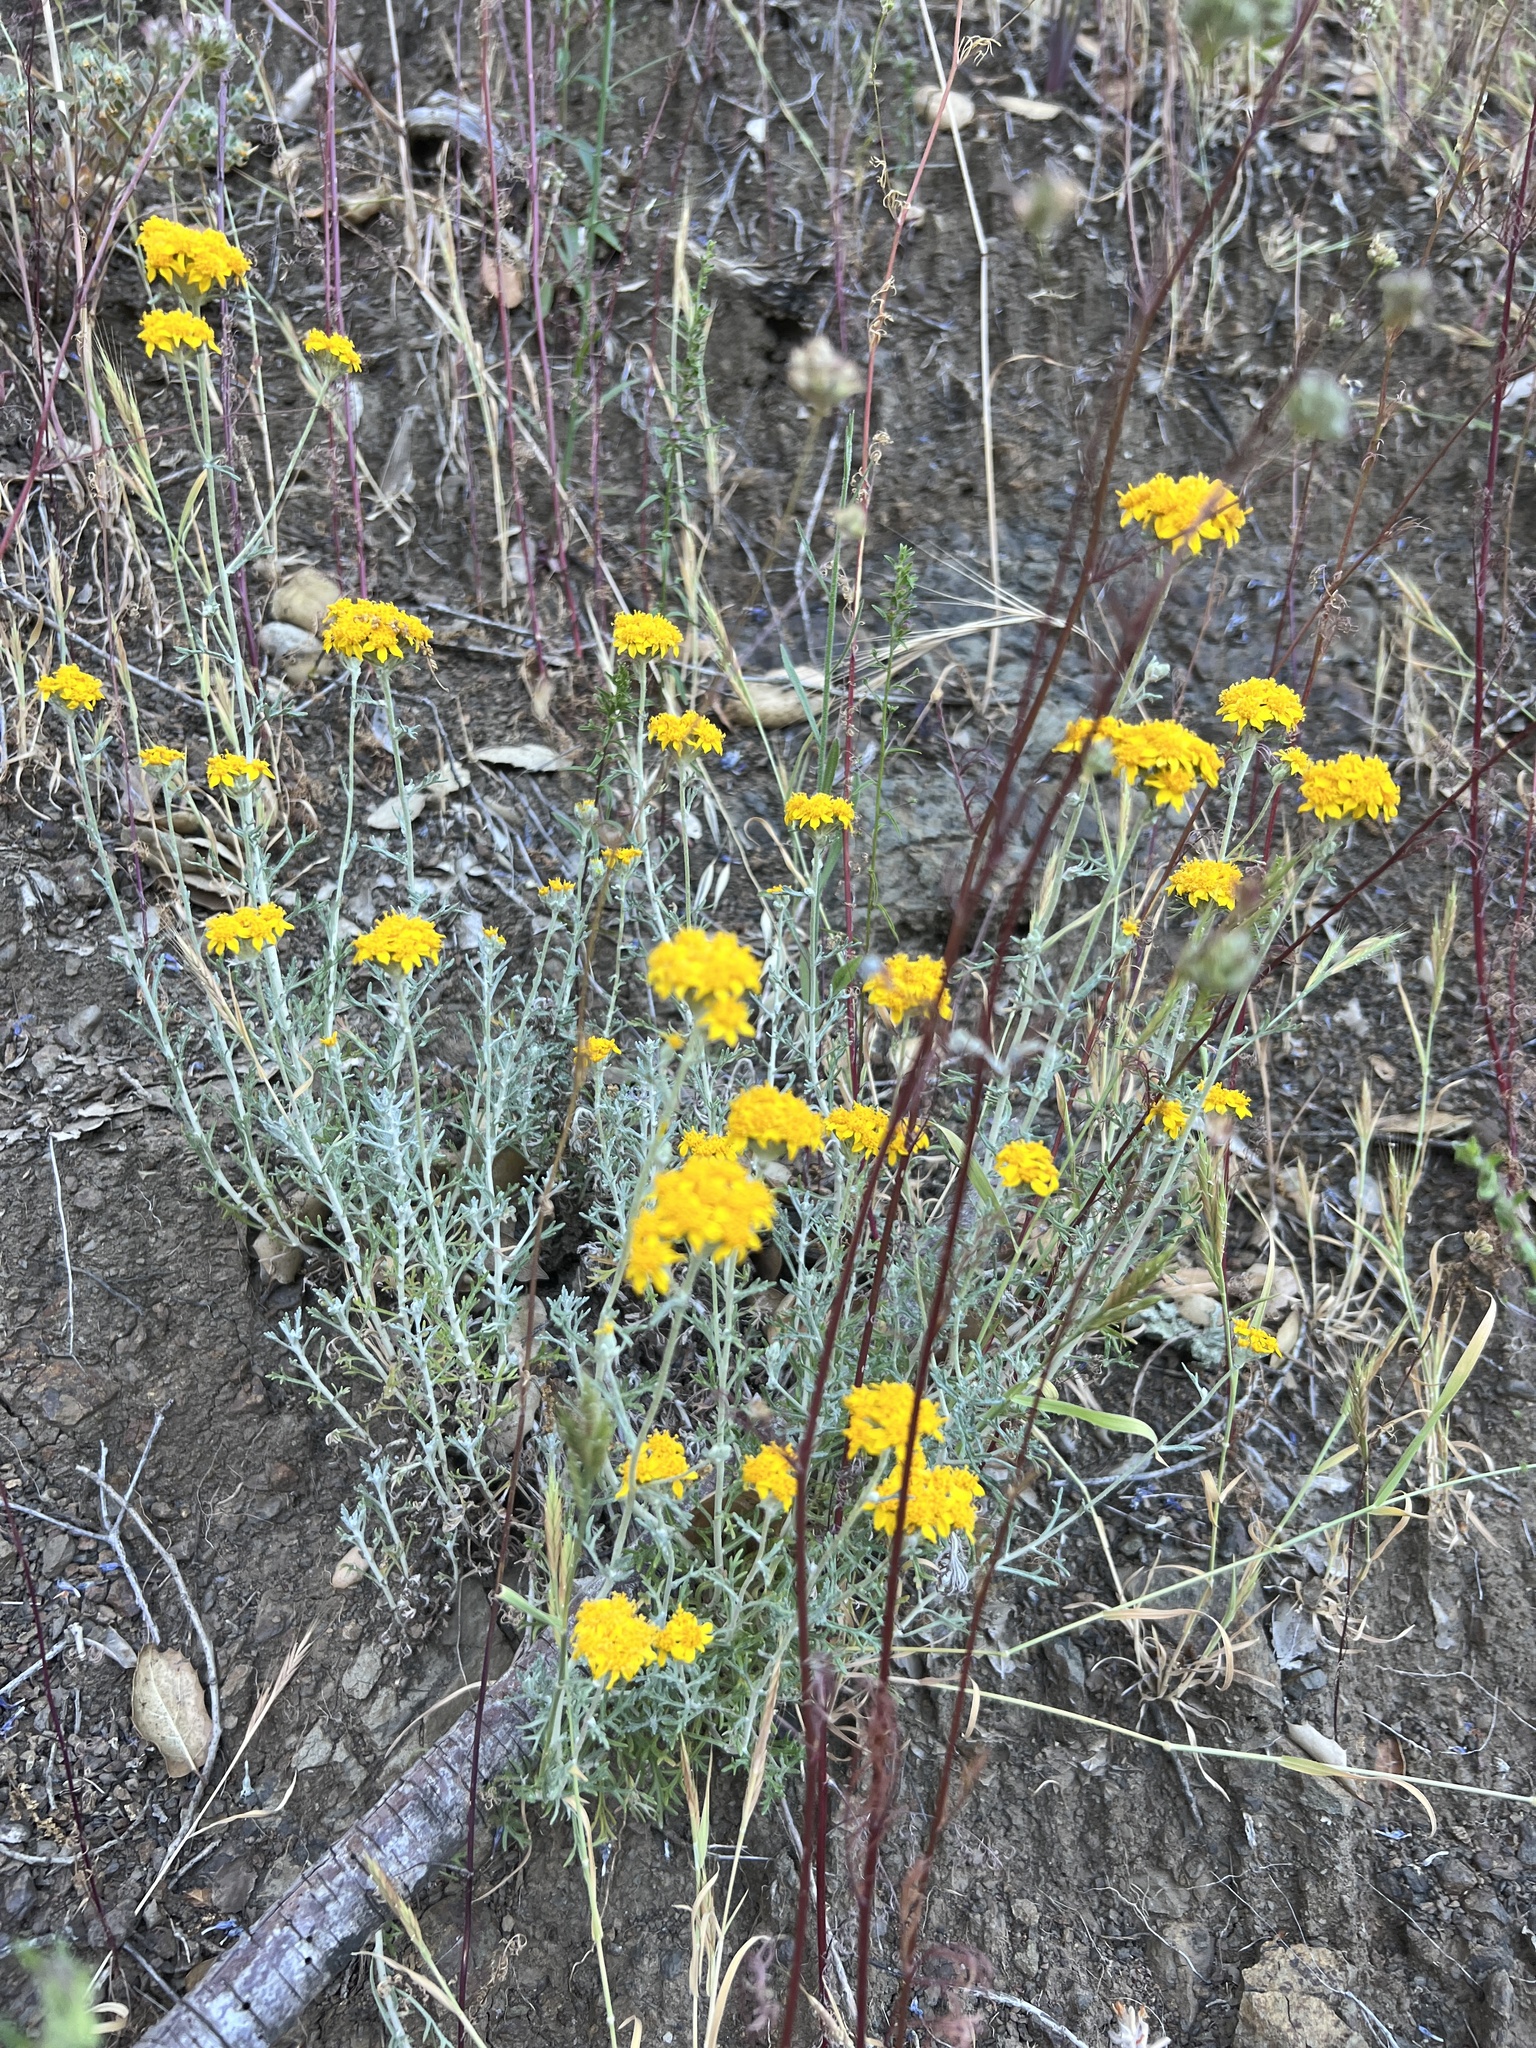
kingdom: Plantae
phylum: Tracheophyta
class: Magnoliopsida
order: Asterales
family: Asteraceae
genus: Eriophyllum
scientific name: Eriophyllum confertiflorum
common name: Golden-yarrow
